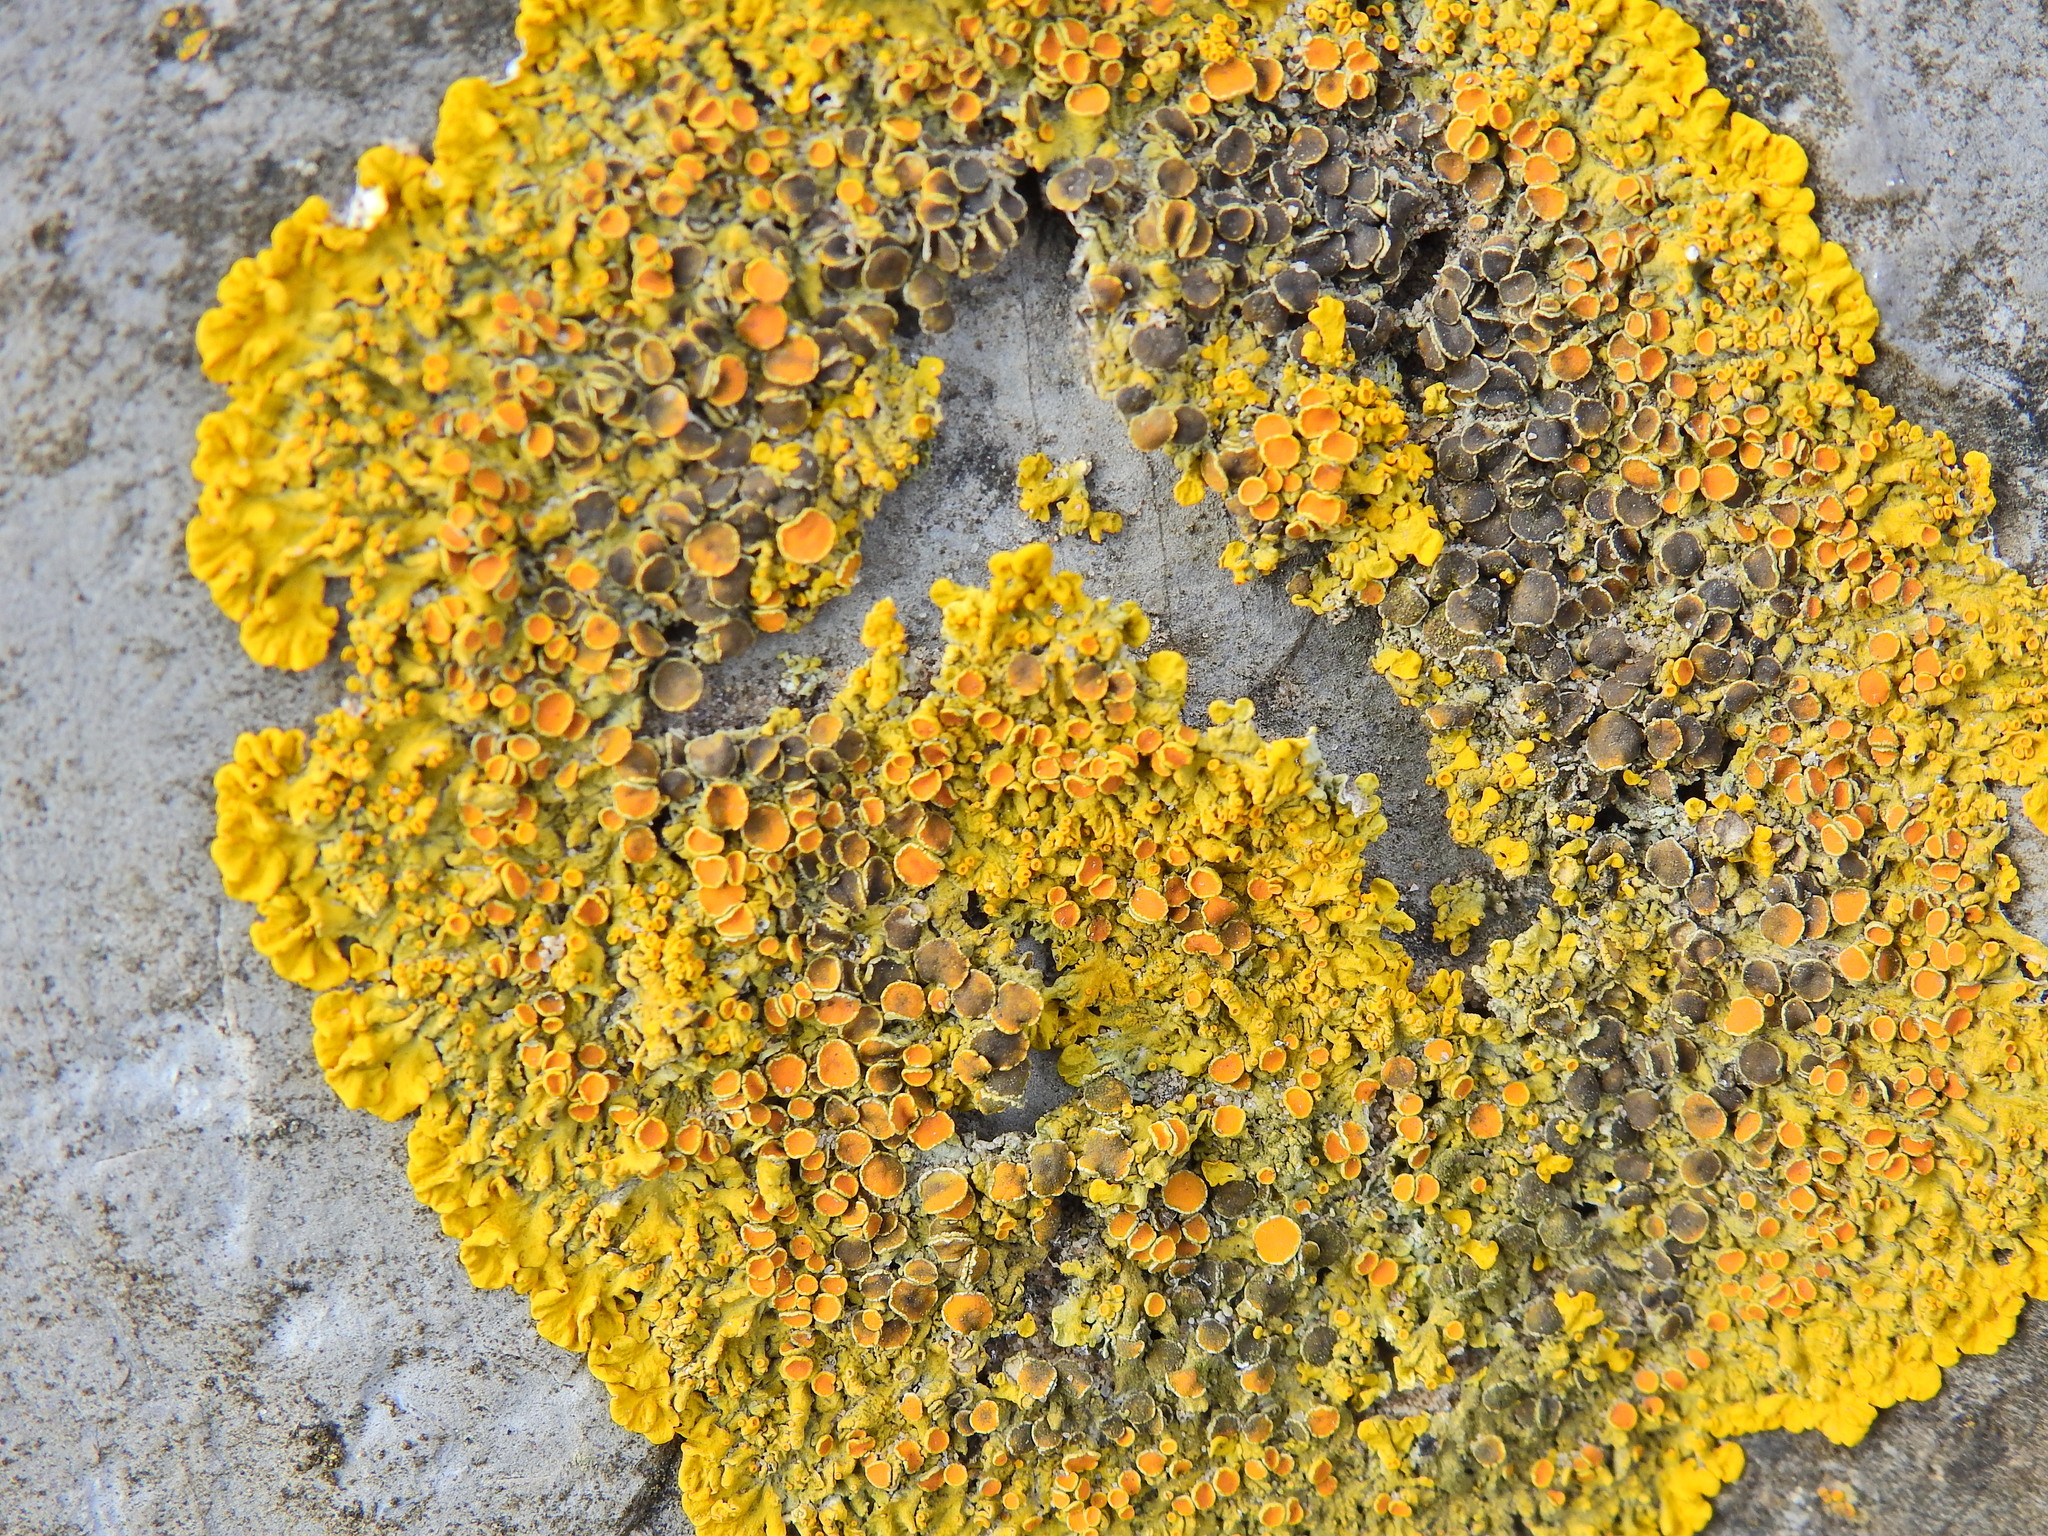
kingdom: Fungi
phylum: Ascomycota
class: Lecanoromycetes
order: Teloschistales
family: Teloschistaceae
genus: Xanthoria
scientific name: Xanthoria parietina
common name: Common orange lichen
